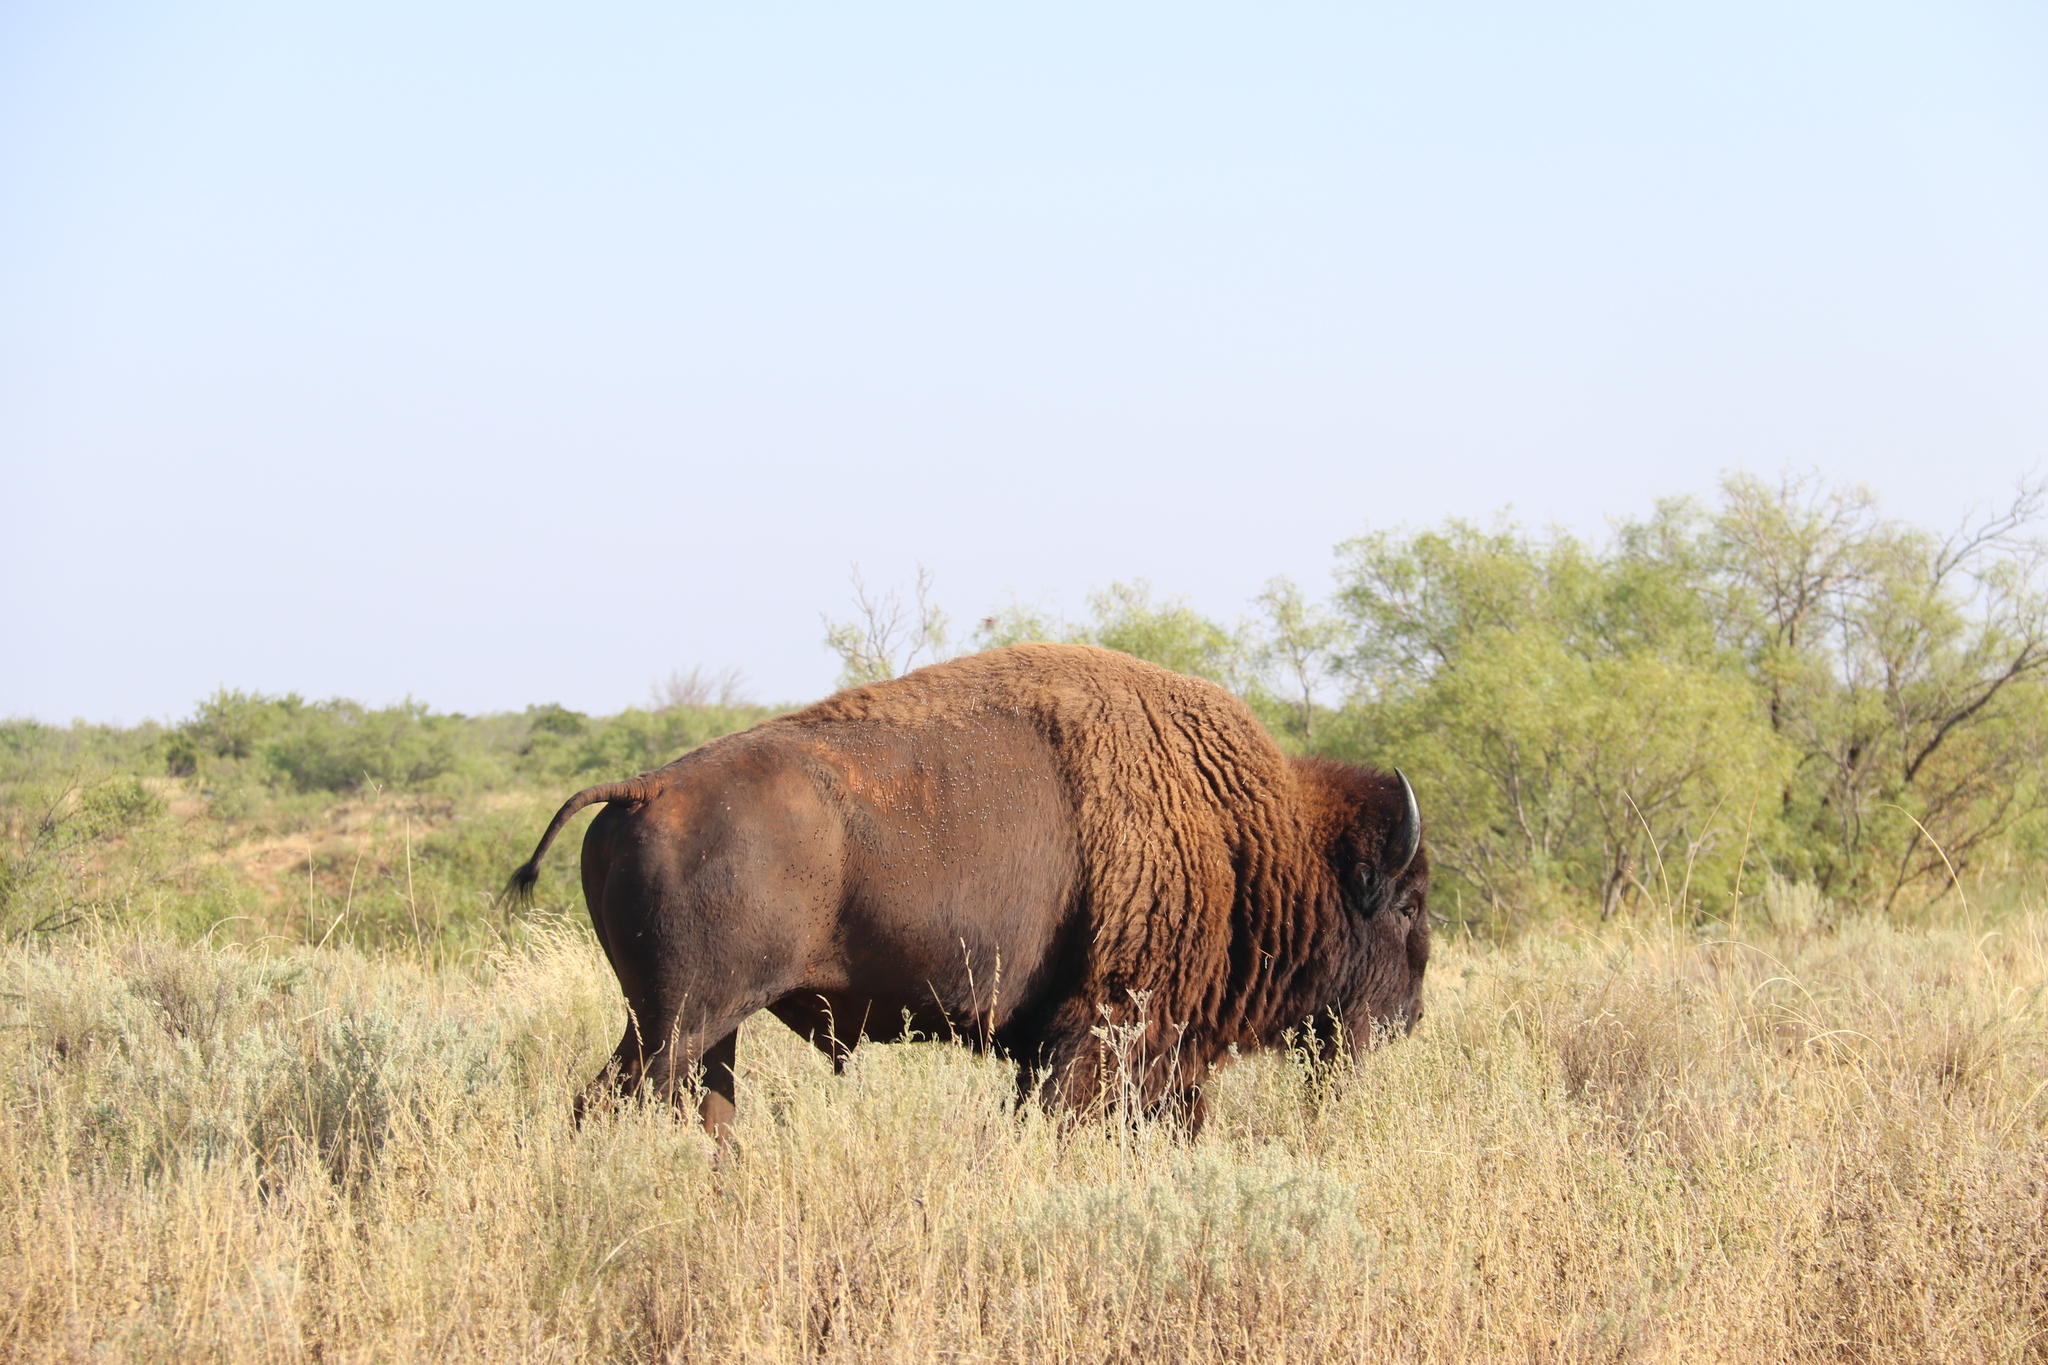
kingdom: Animalia
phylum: Chordata
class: Mammalia
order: Artiodactyla
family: Bovidae
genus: Bison
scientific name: Bison bison
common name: American bison
